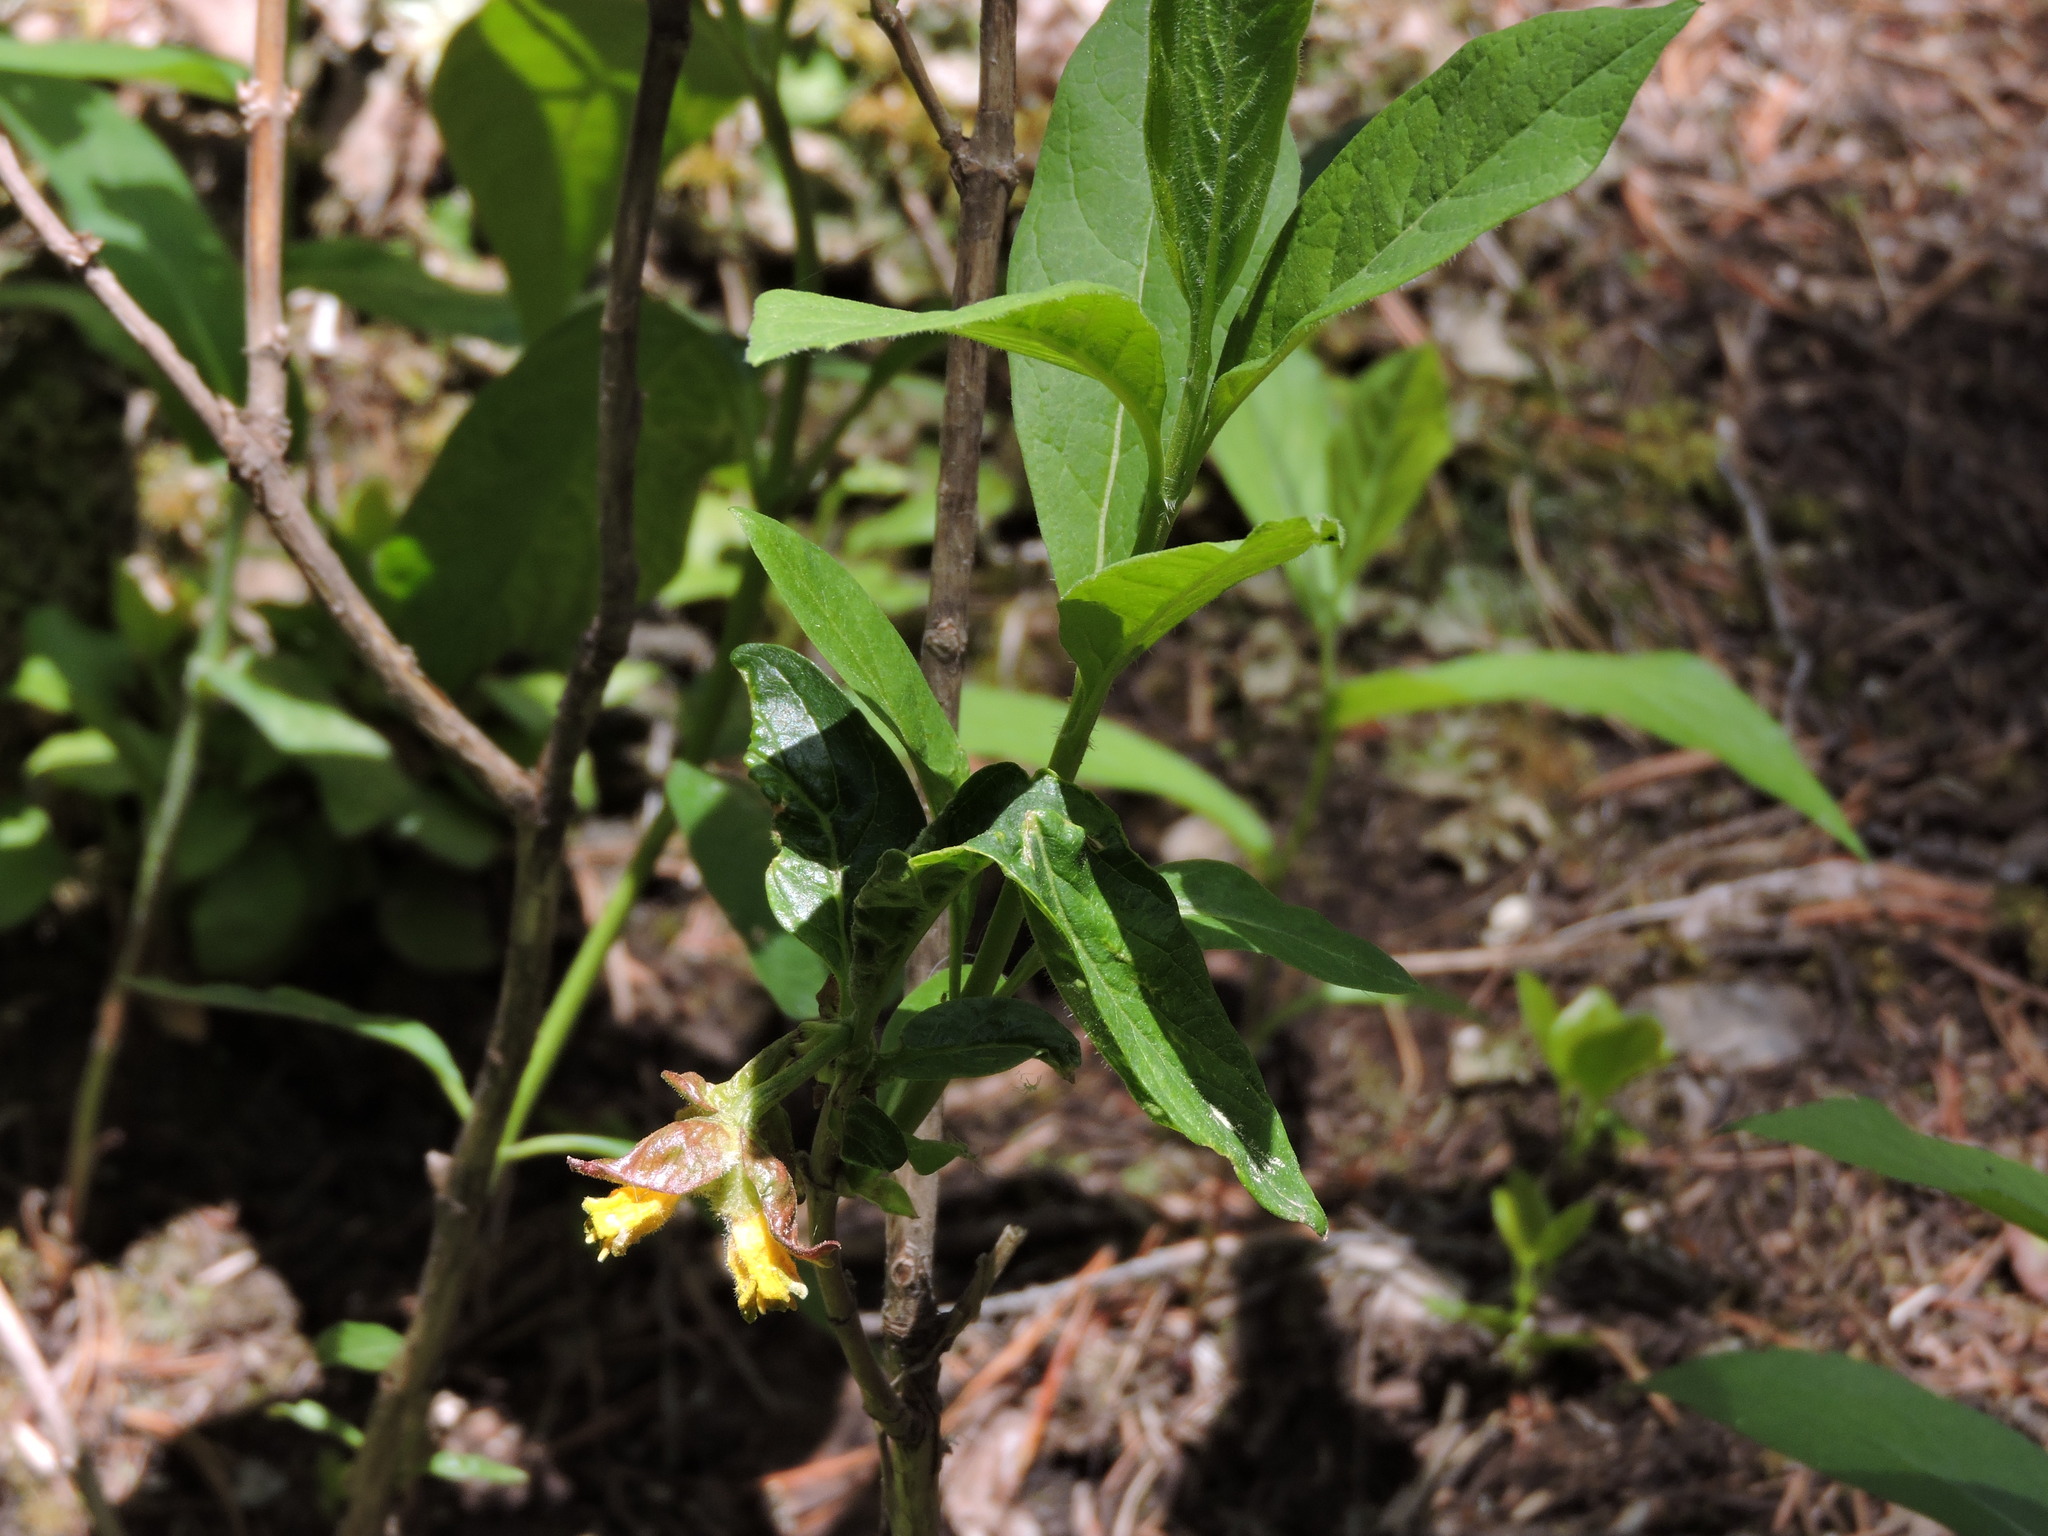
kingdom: Plantae
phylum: Tracheophyta
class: Magnoliopsida
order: Dipsacales
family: Caprifoliaceae
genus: Lonicera
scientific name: Lonicera involucrata
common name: Californian honeysuckle
